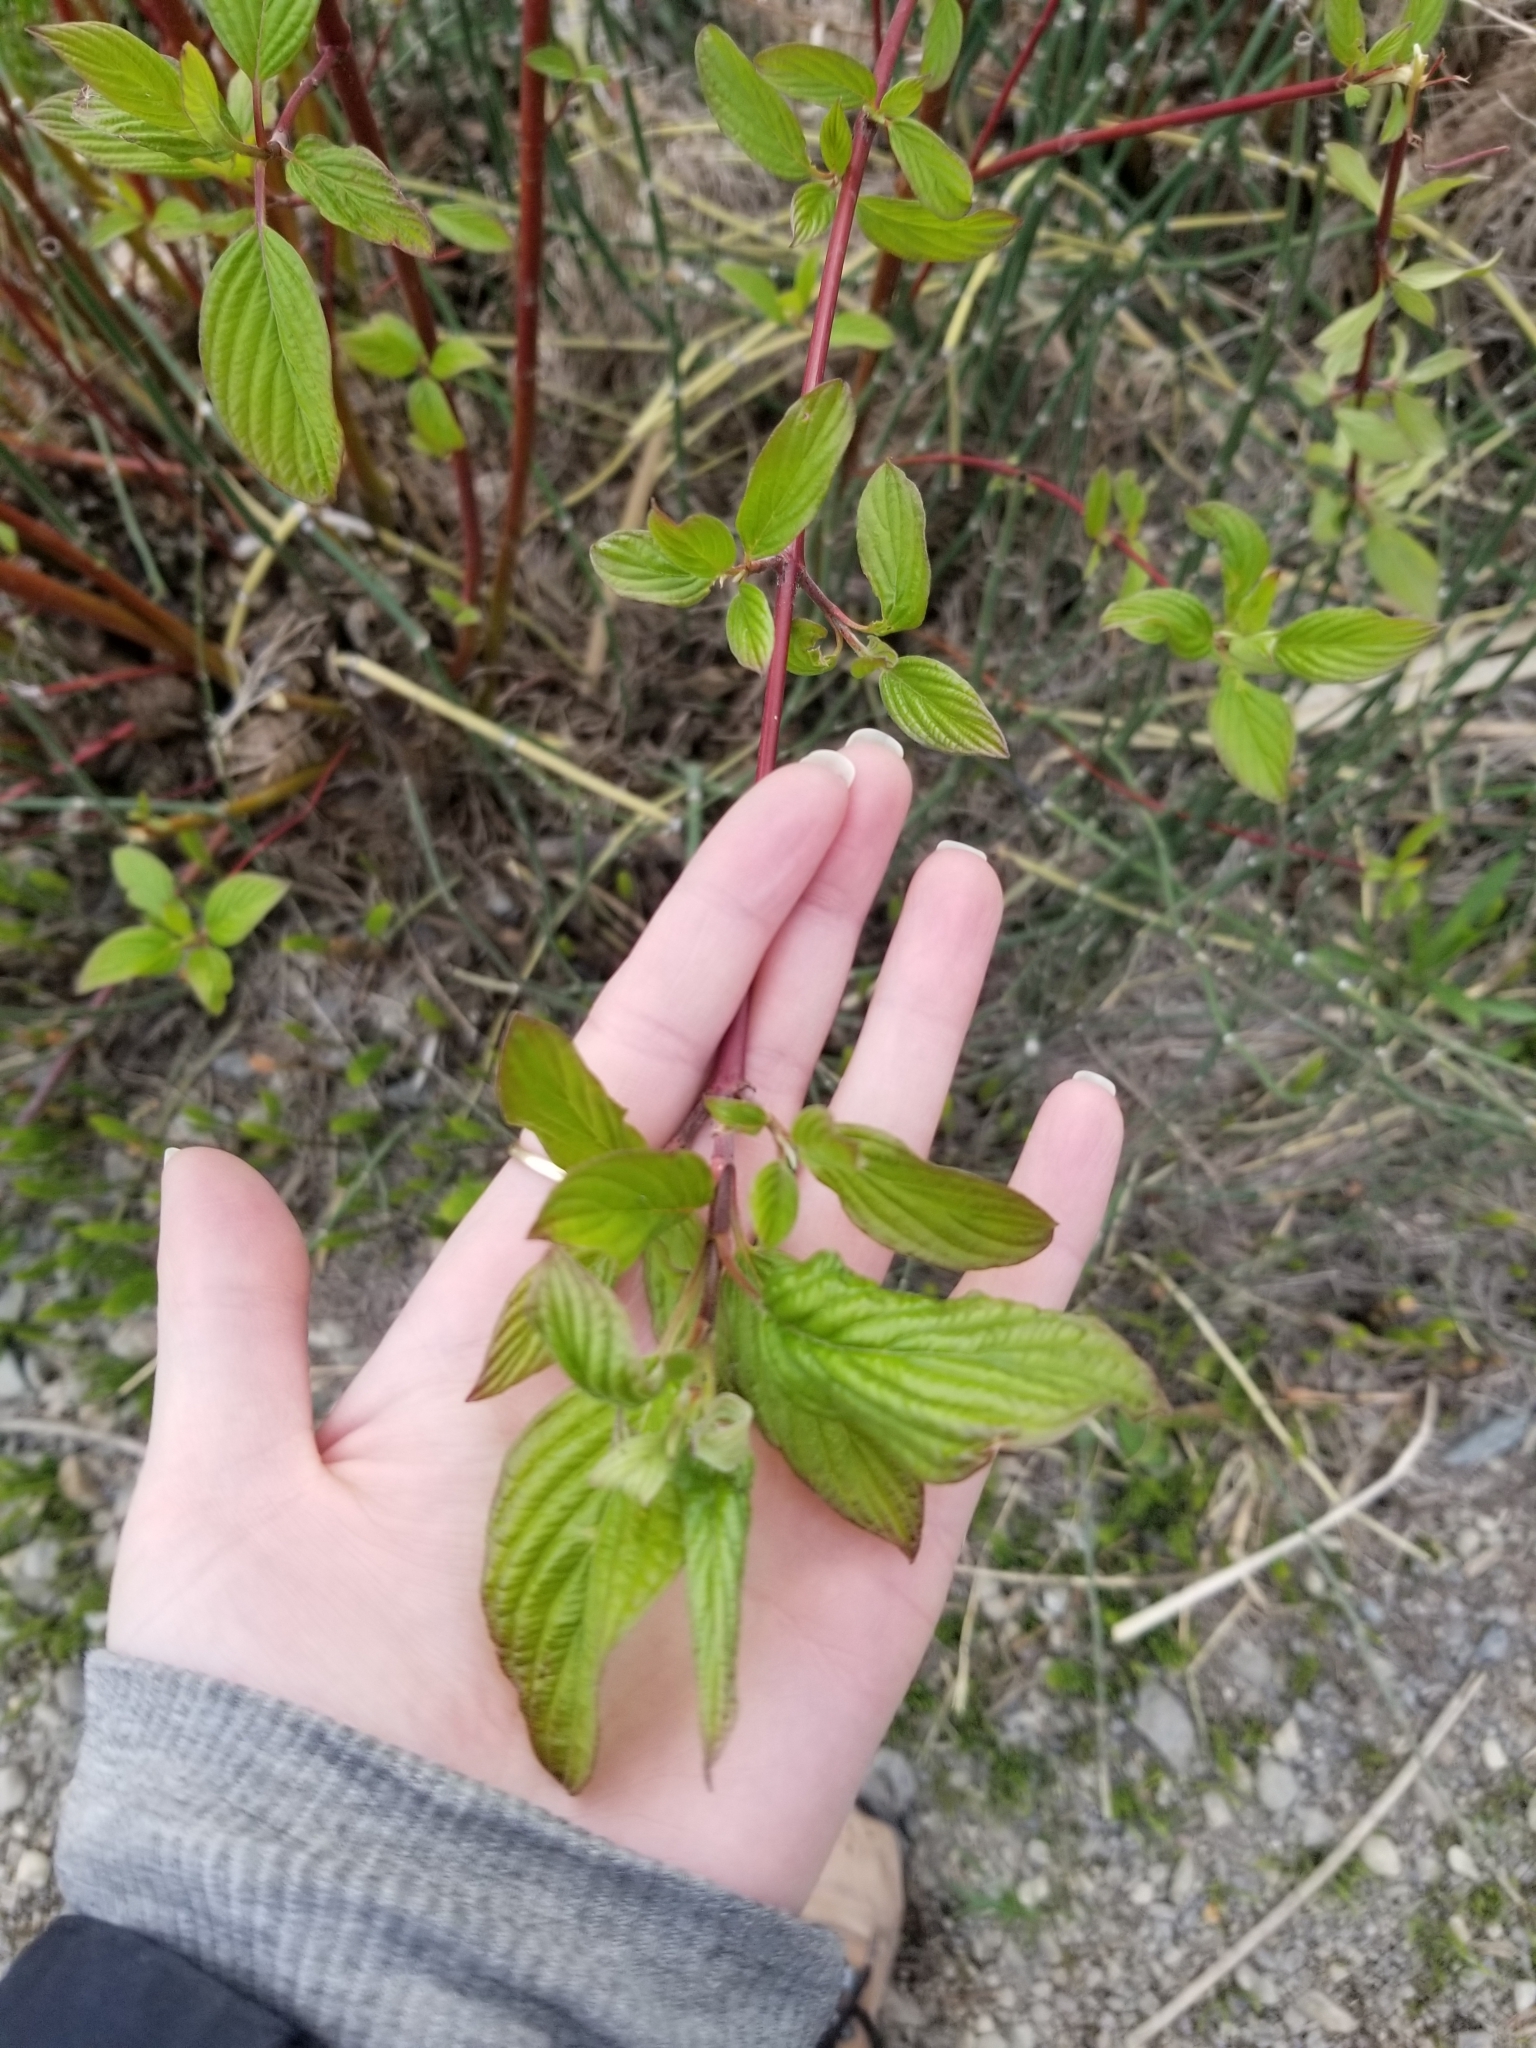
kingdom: Plantae
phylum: Tracheophyta
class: Magnoliopsida
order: Cornales
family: Cornaceae
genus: Cornus
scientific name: Cornus sericea
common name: Red-osier dogwood
